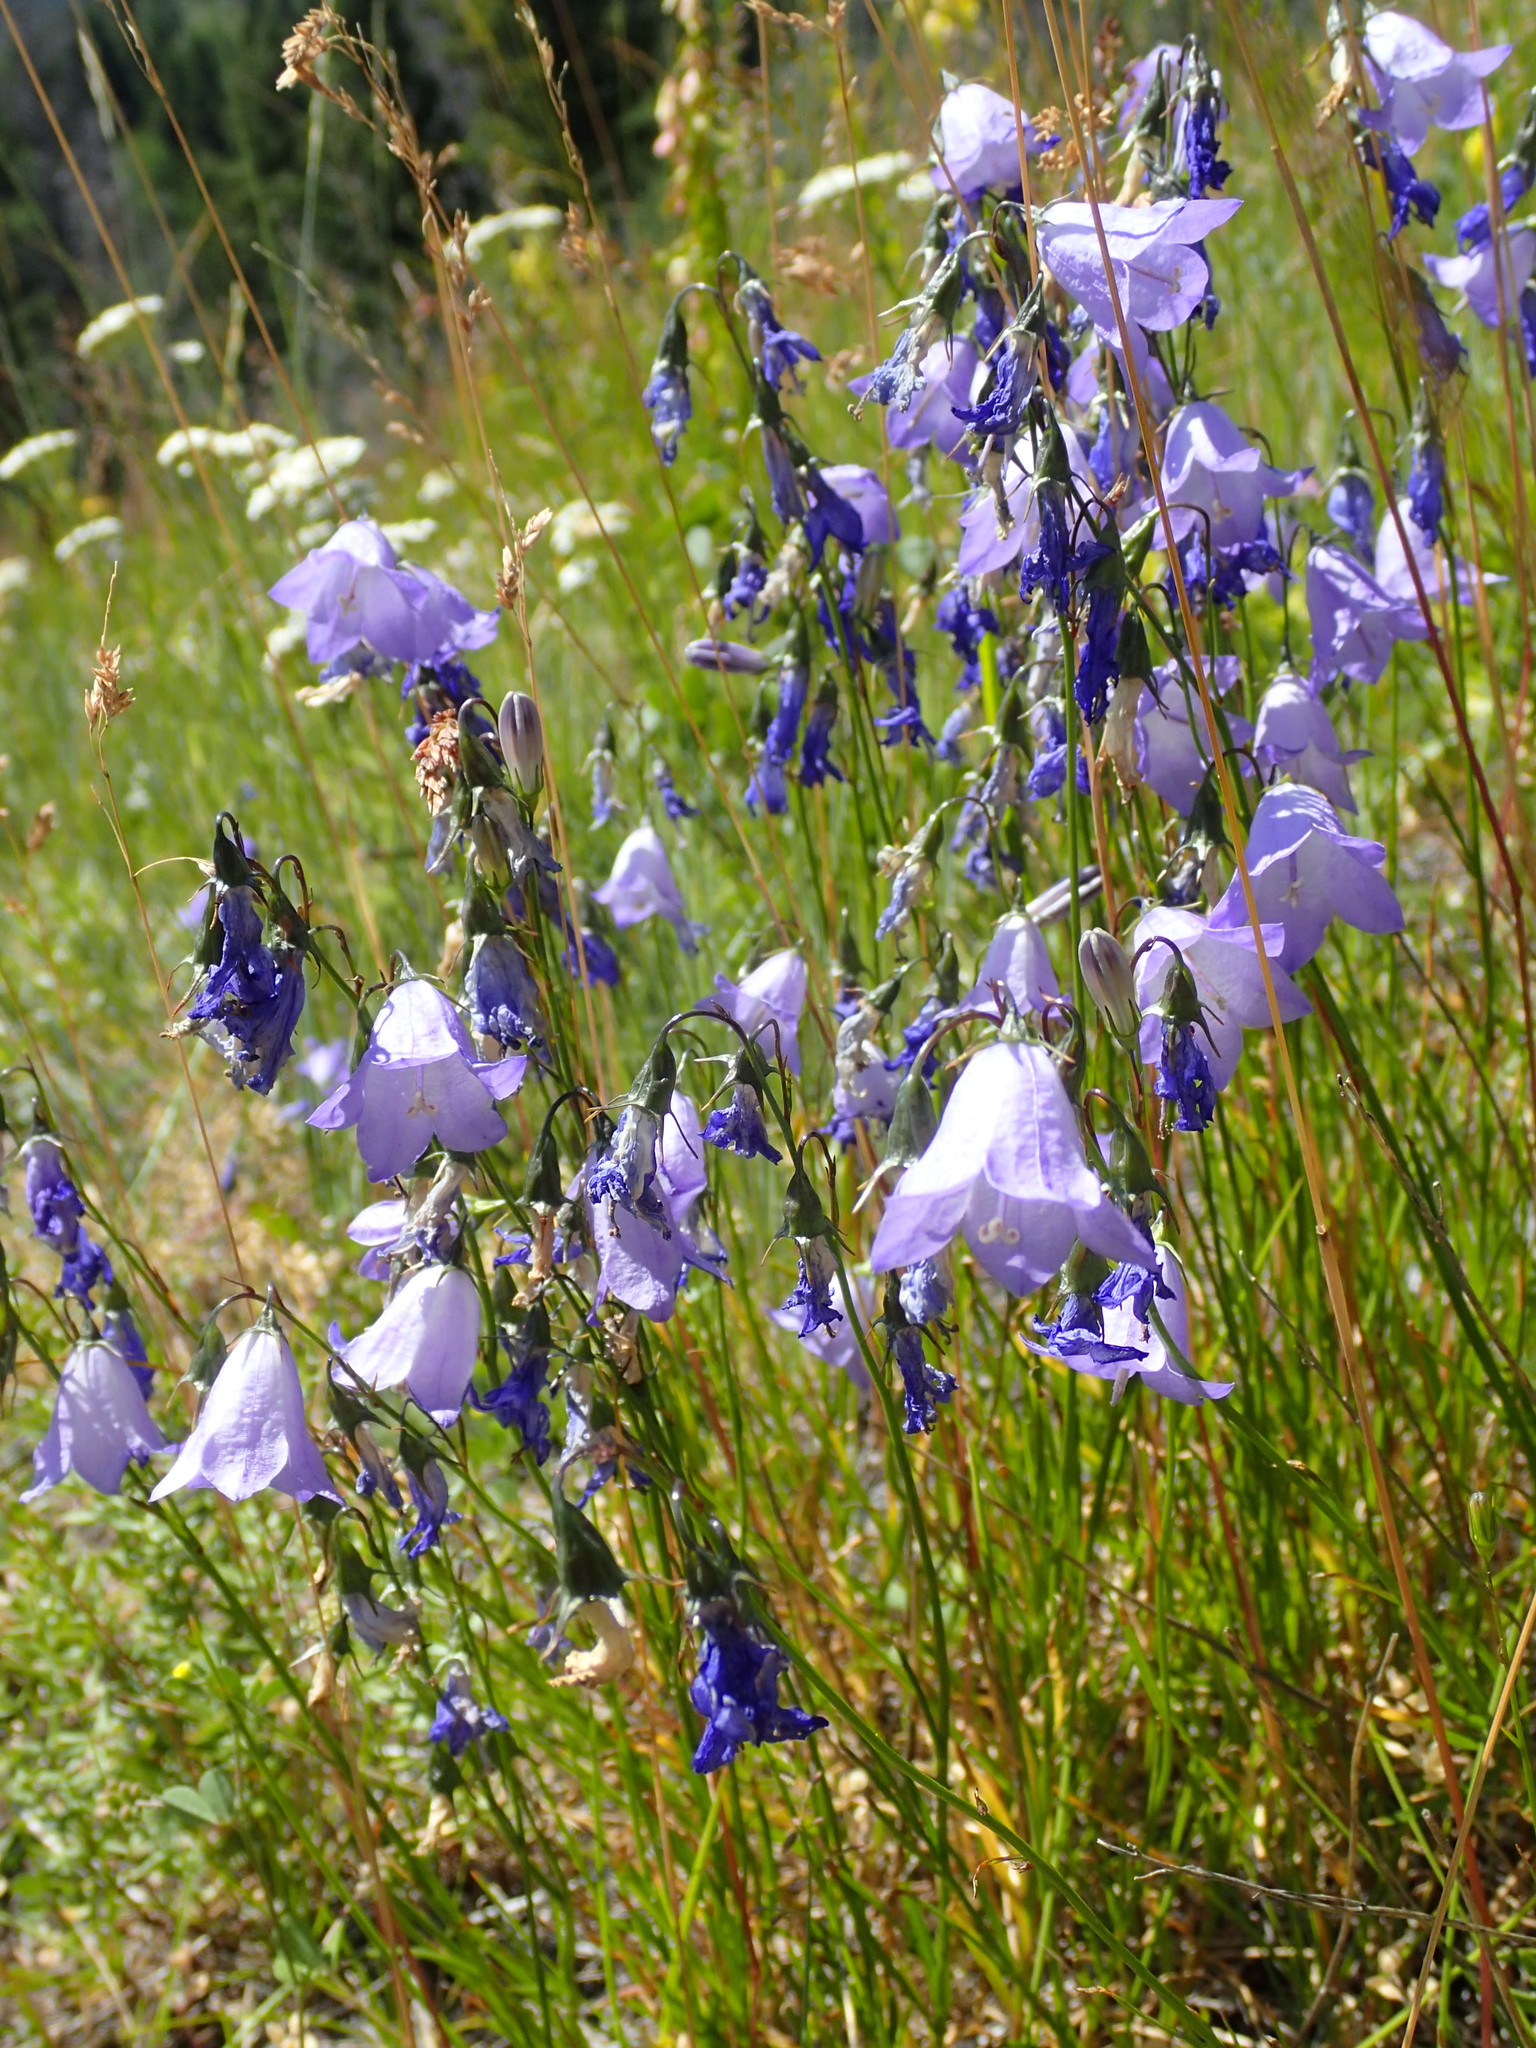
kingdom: Plantae
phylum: Tracheophyta
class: Magnoliopsida
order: Asterales
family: Campanulaceae
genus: Campanula
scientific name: Campanula alaskana
